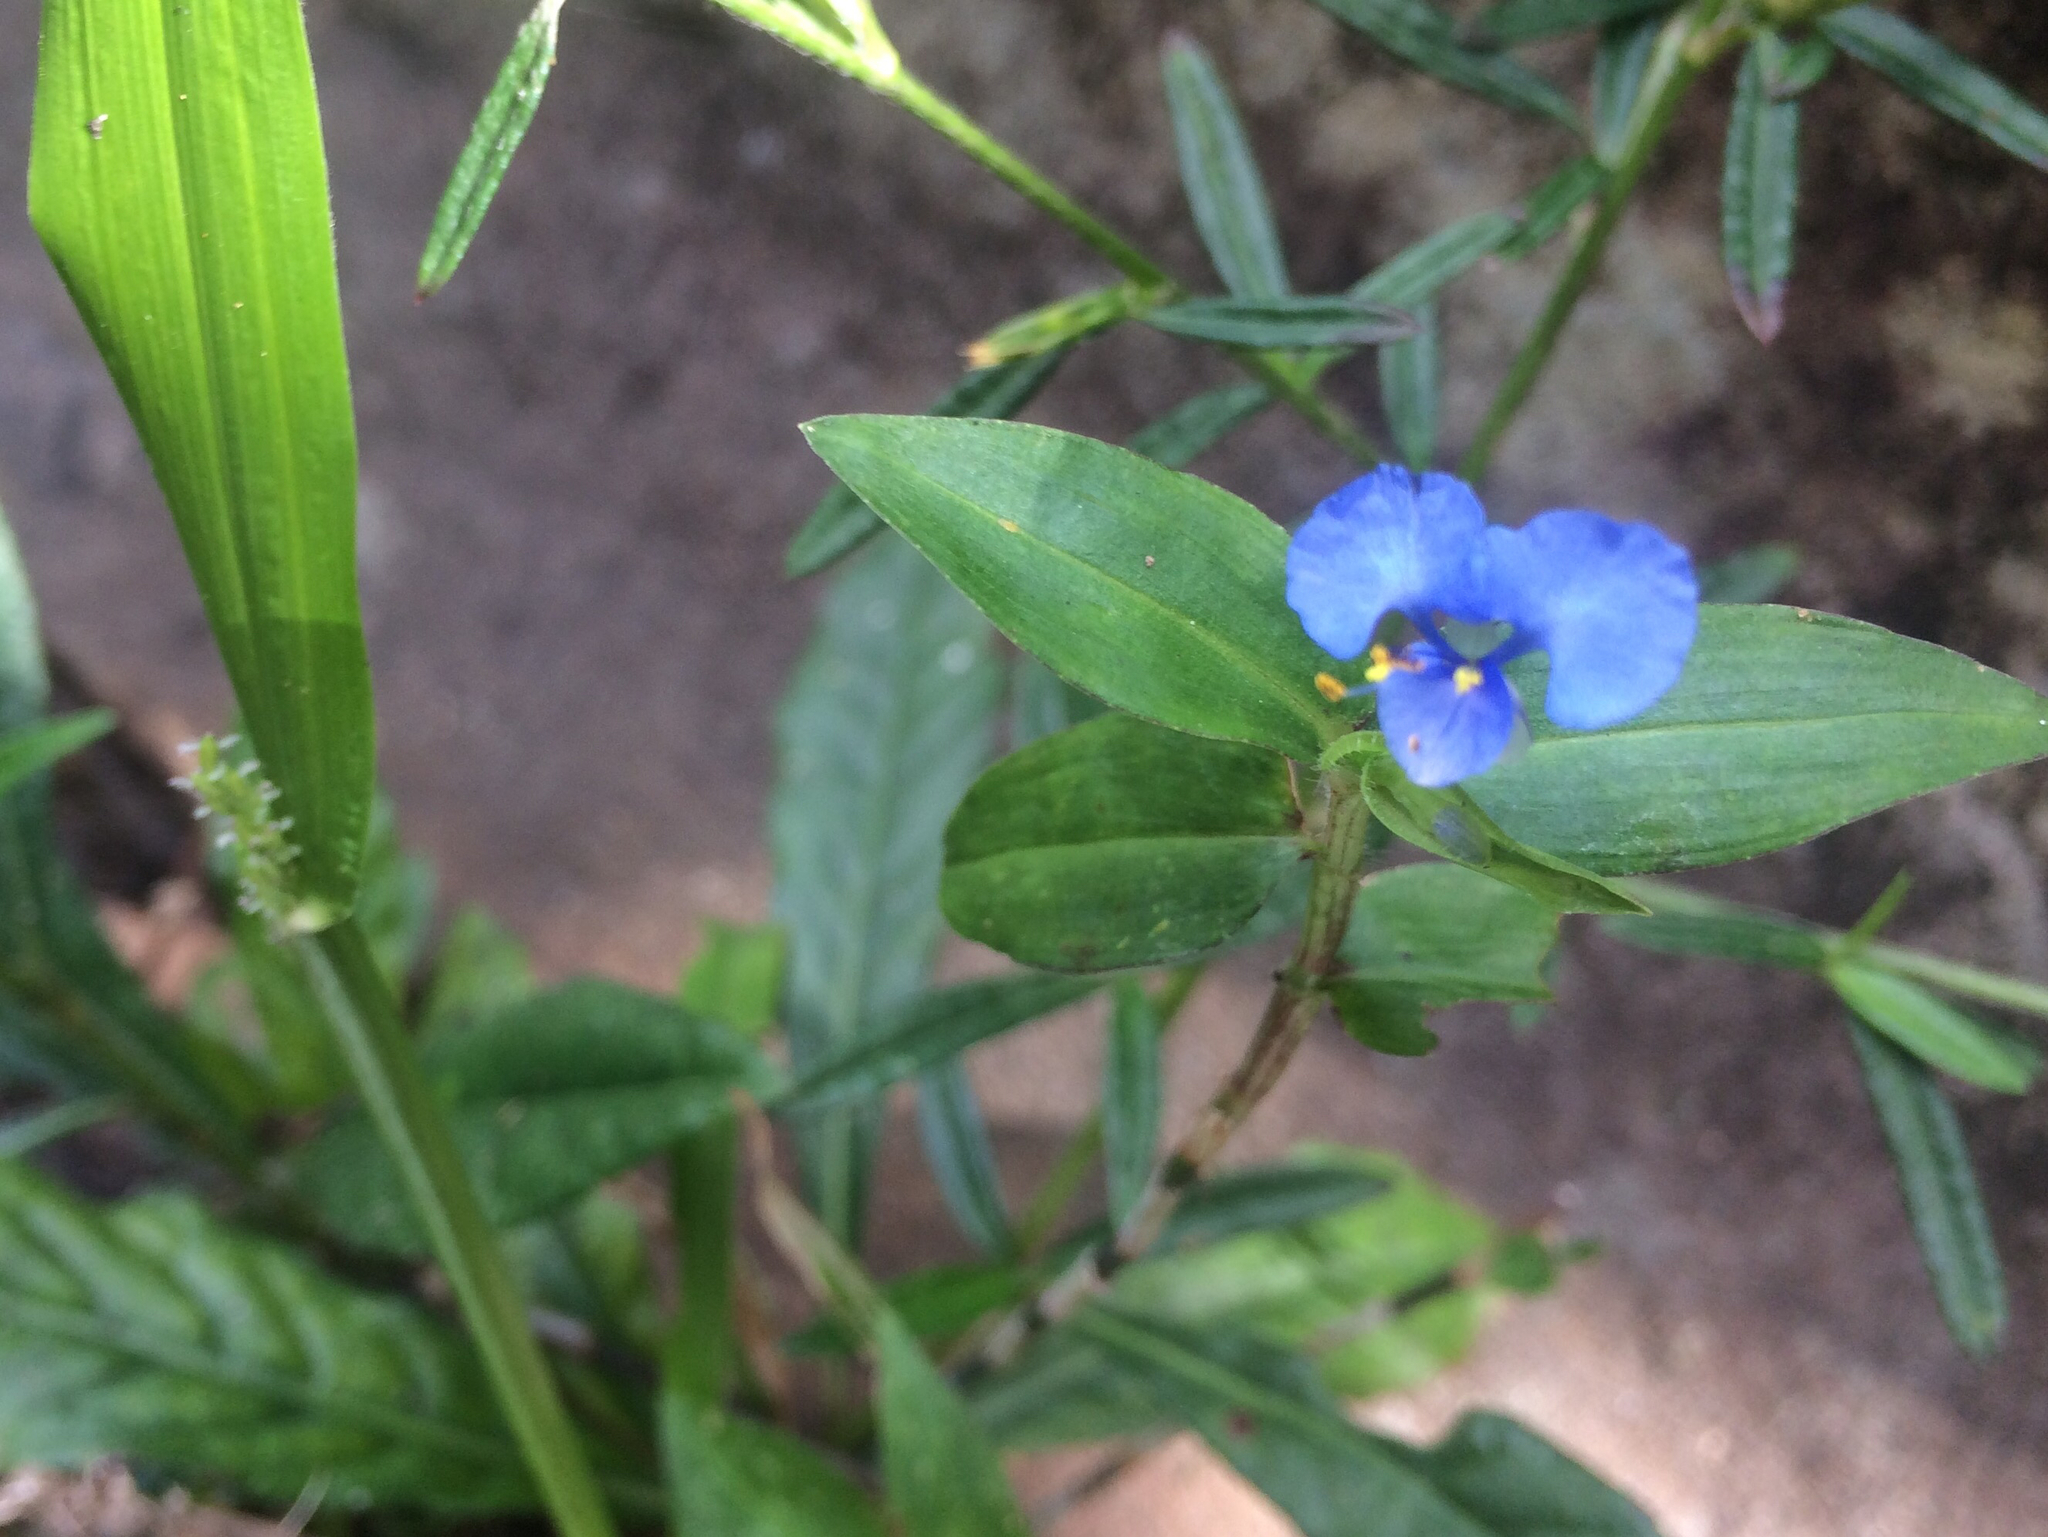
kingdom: Plantae
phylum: Tracheophyta
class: Liliopsida
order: Commelinales
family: Commelinaceae
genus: Commelina
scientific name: Commelina diffusa
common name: Climbing dayflower
